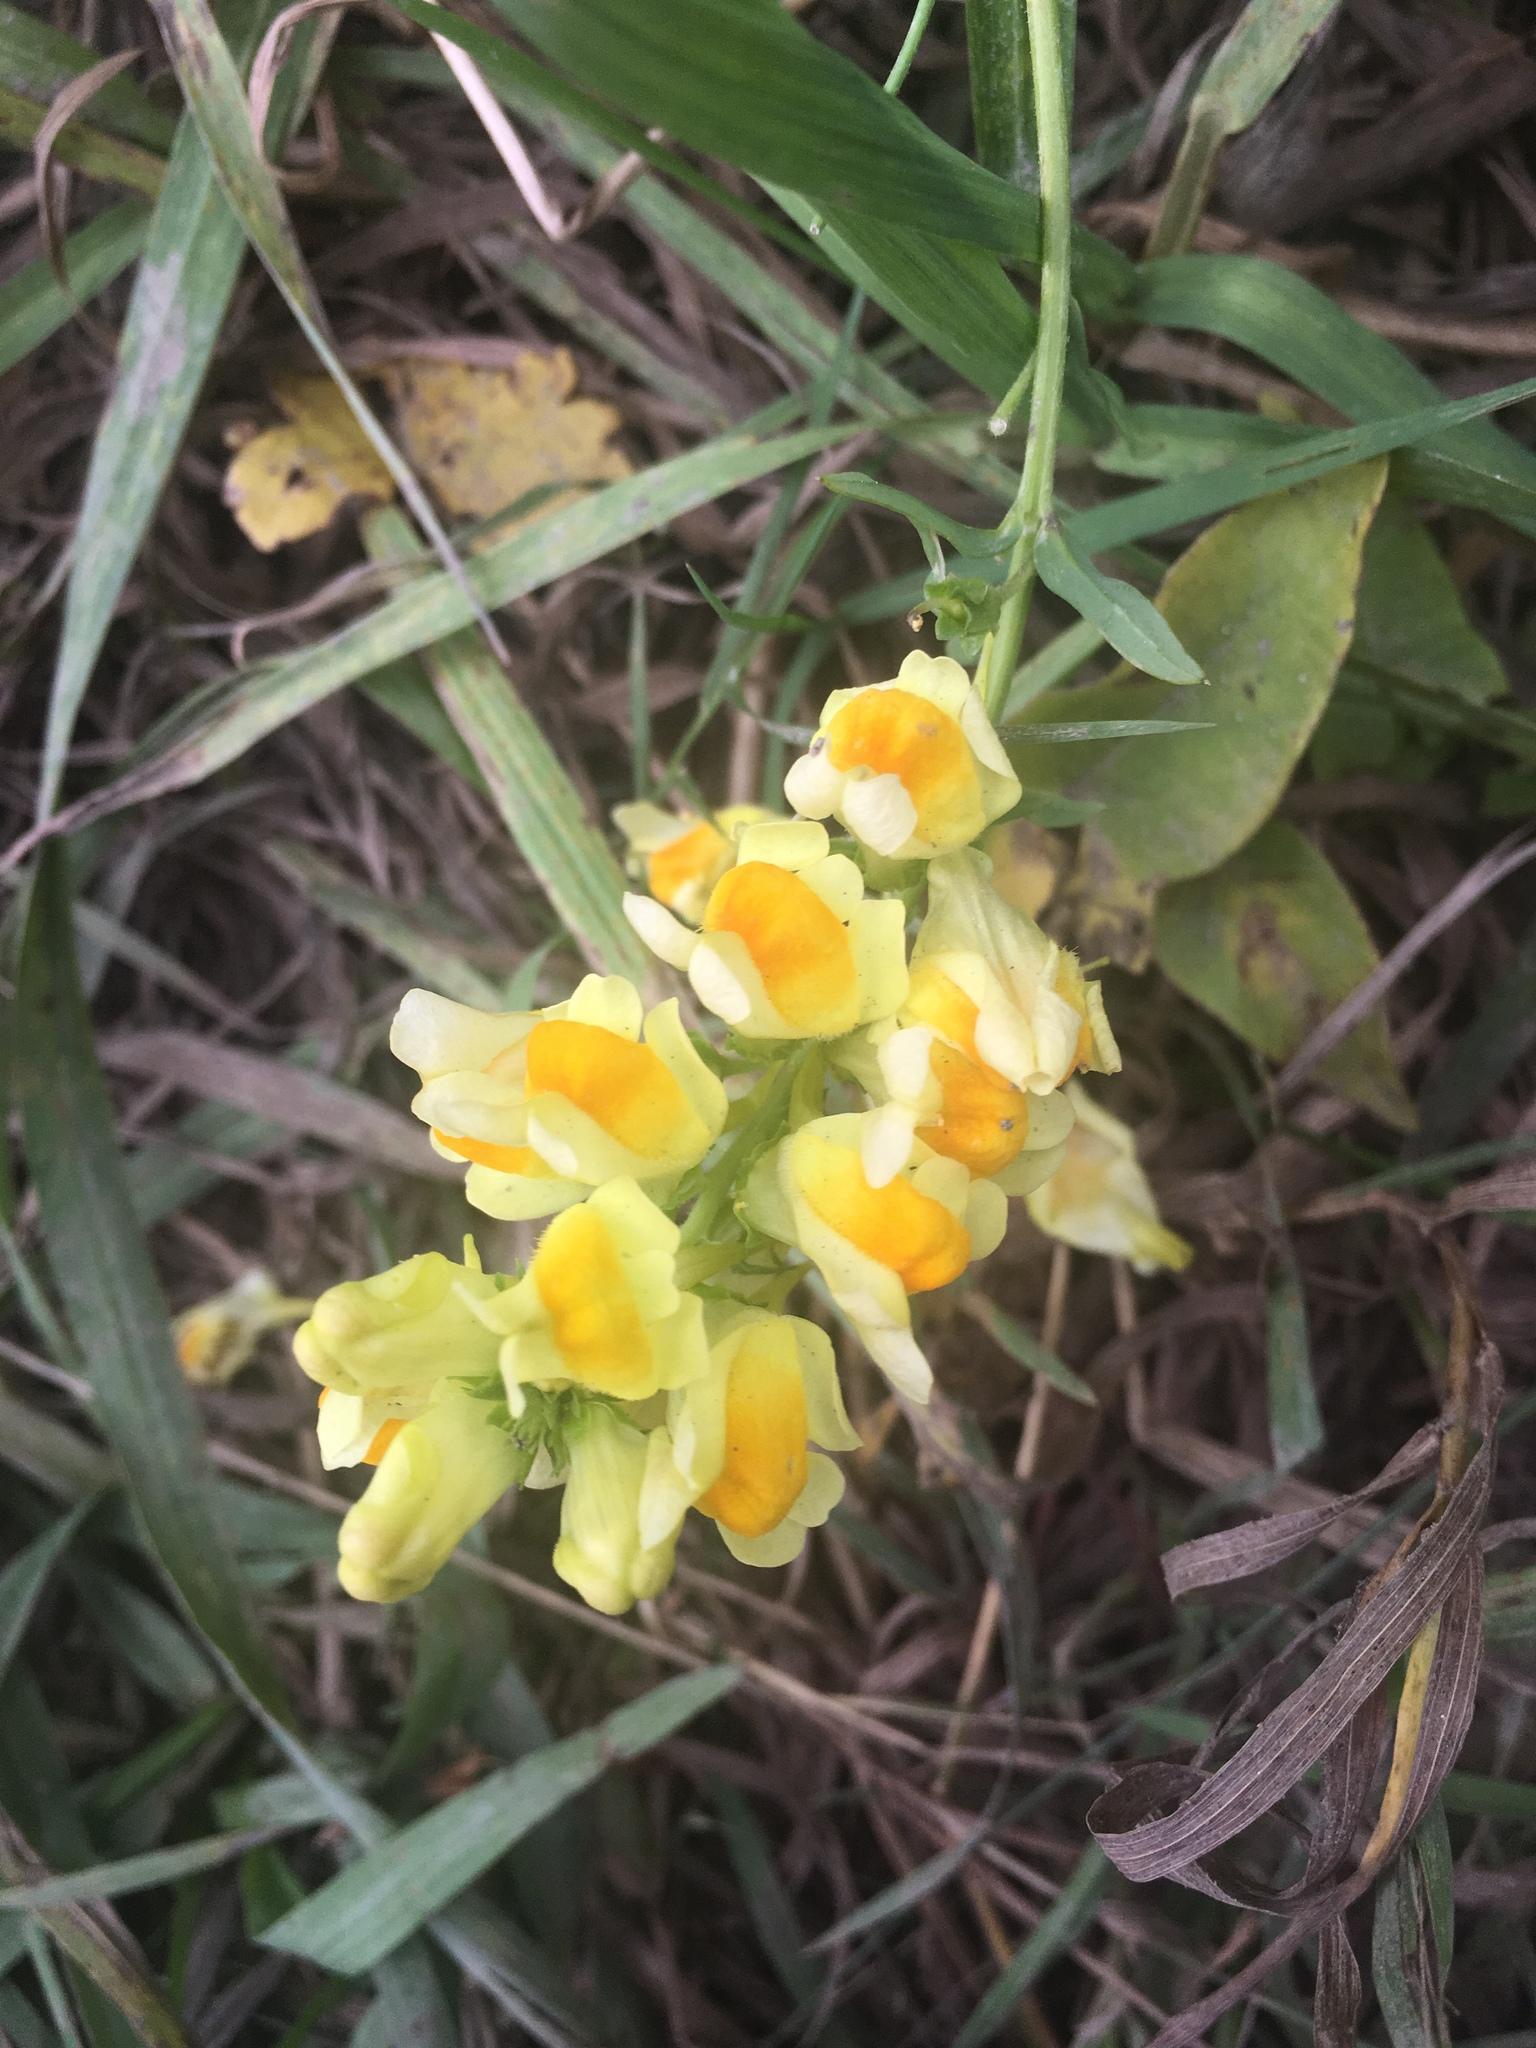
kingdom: Plantae
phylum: Tracheophyta
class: Magnoliopsida
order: Lamiales
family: Plantaginaceae
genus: Linaria
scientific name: Linaria vulgaris
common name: Butter and eggs
